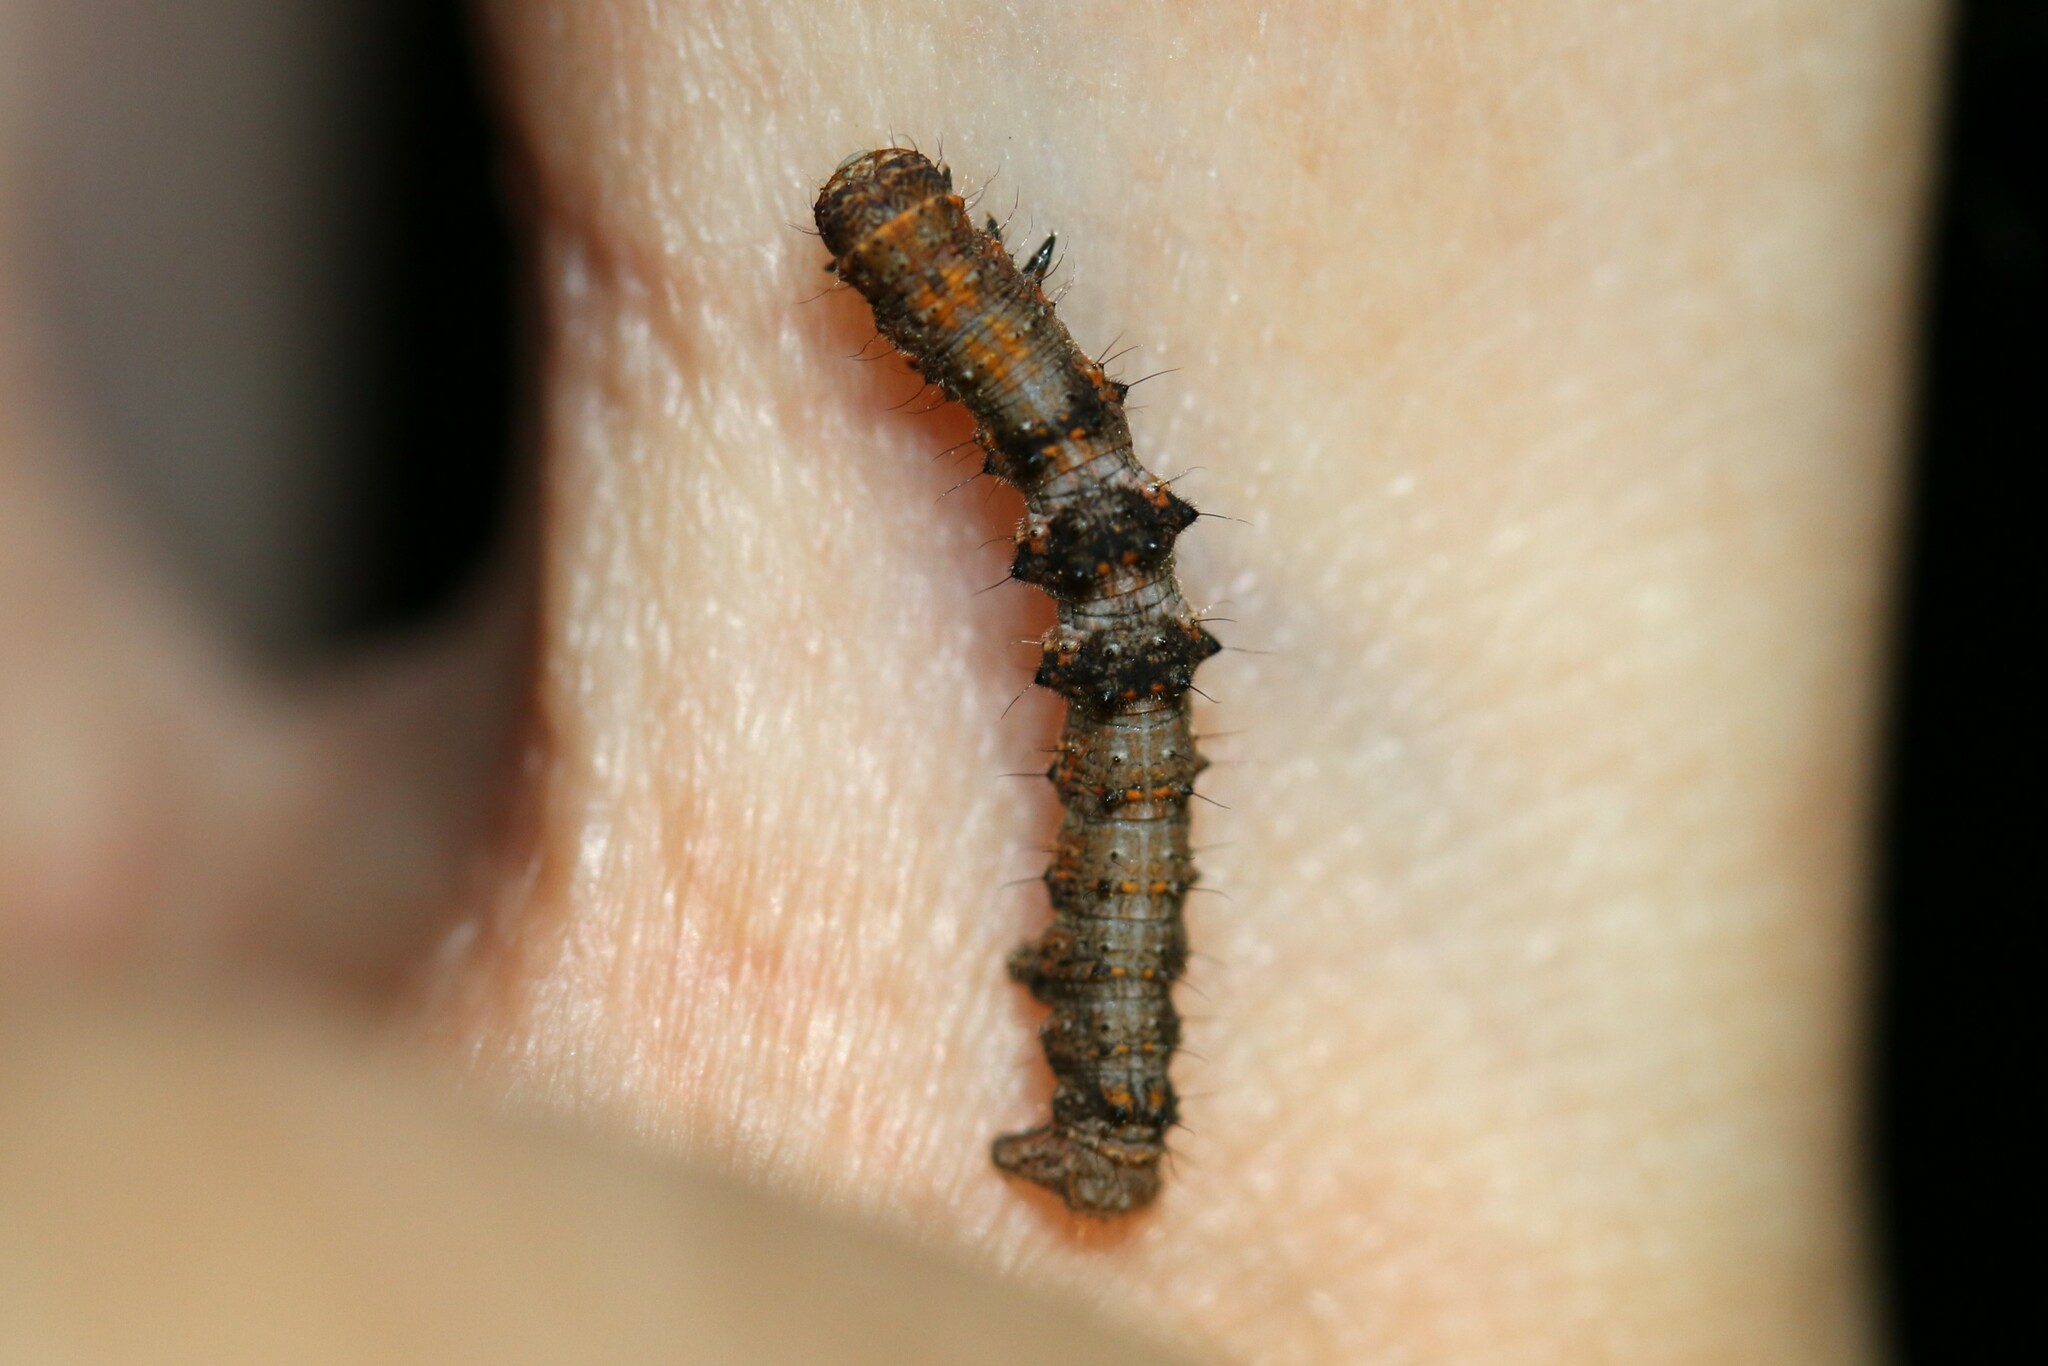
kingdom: Animalia
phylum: Arthropoda
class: Insecta
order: Lepidoptera
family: Geometridae
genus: Phigalia
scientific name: Phigalia pilosaria
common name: Pale brindled beauty
